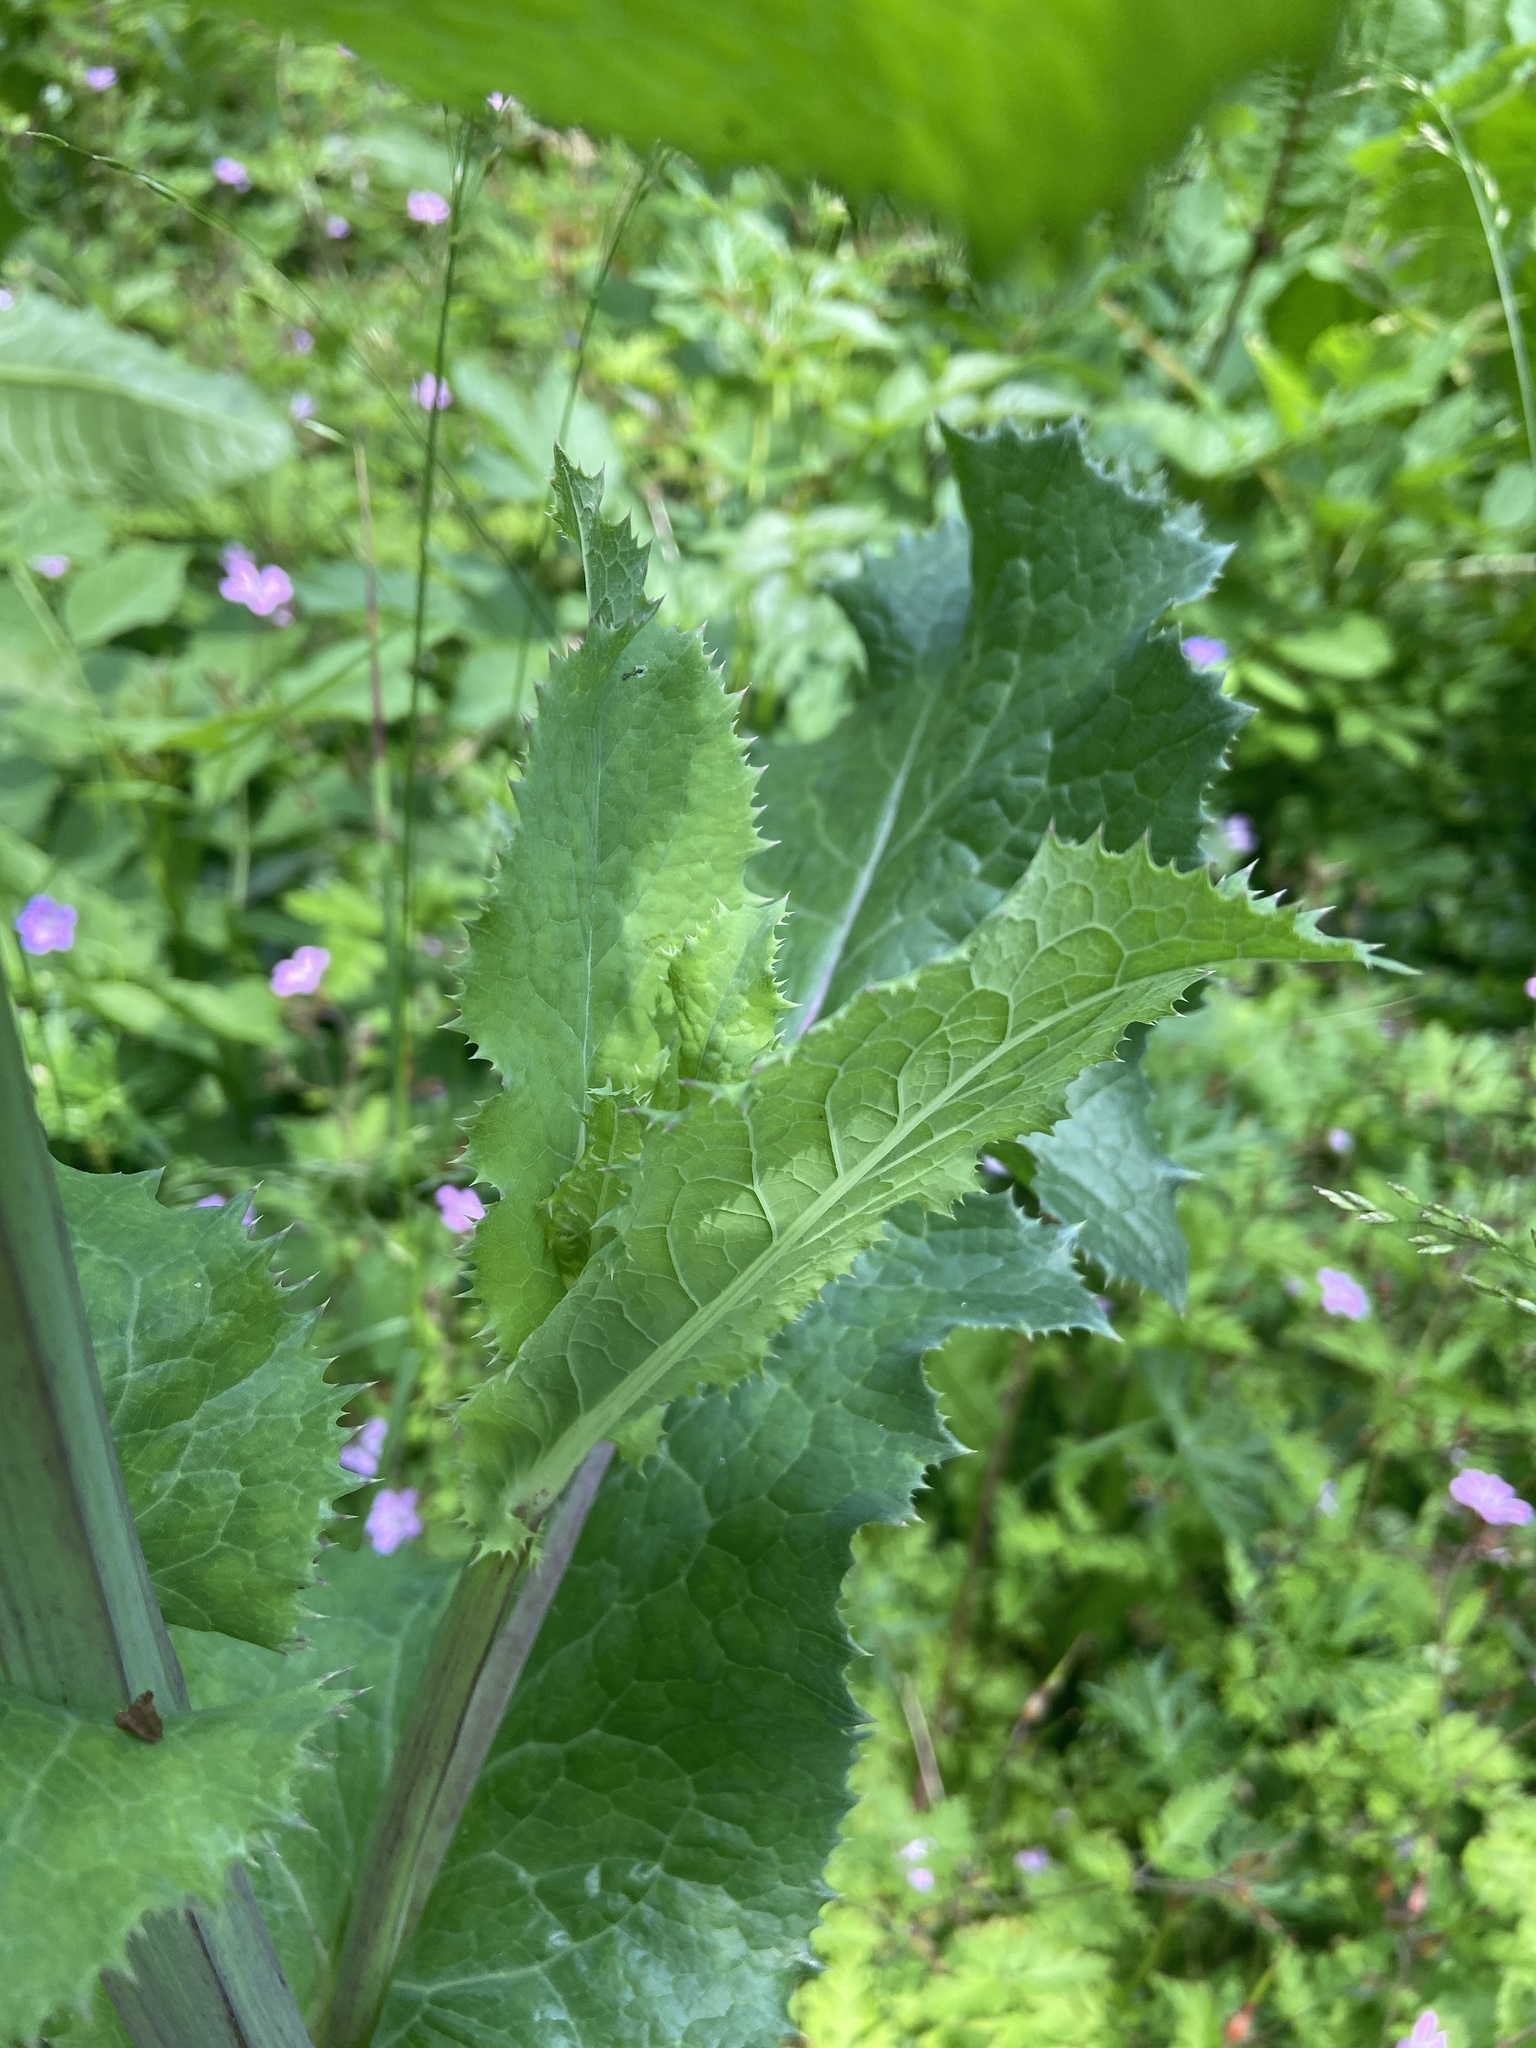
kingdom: Plantae
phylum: Tracheophyta
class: Magnoliopsida
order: Asterales
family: Asteraceae
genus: Sonchus
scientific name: Sonchus oleraceus
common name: Common sowthistle
